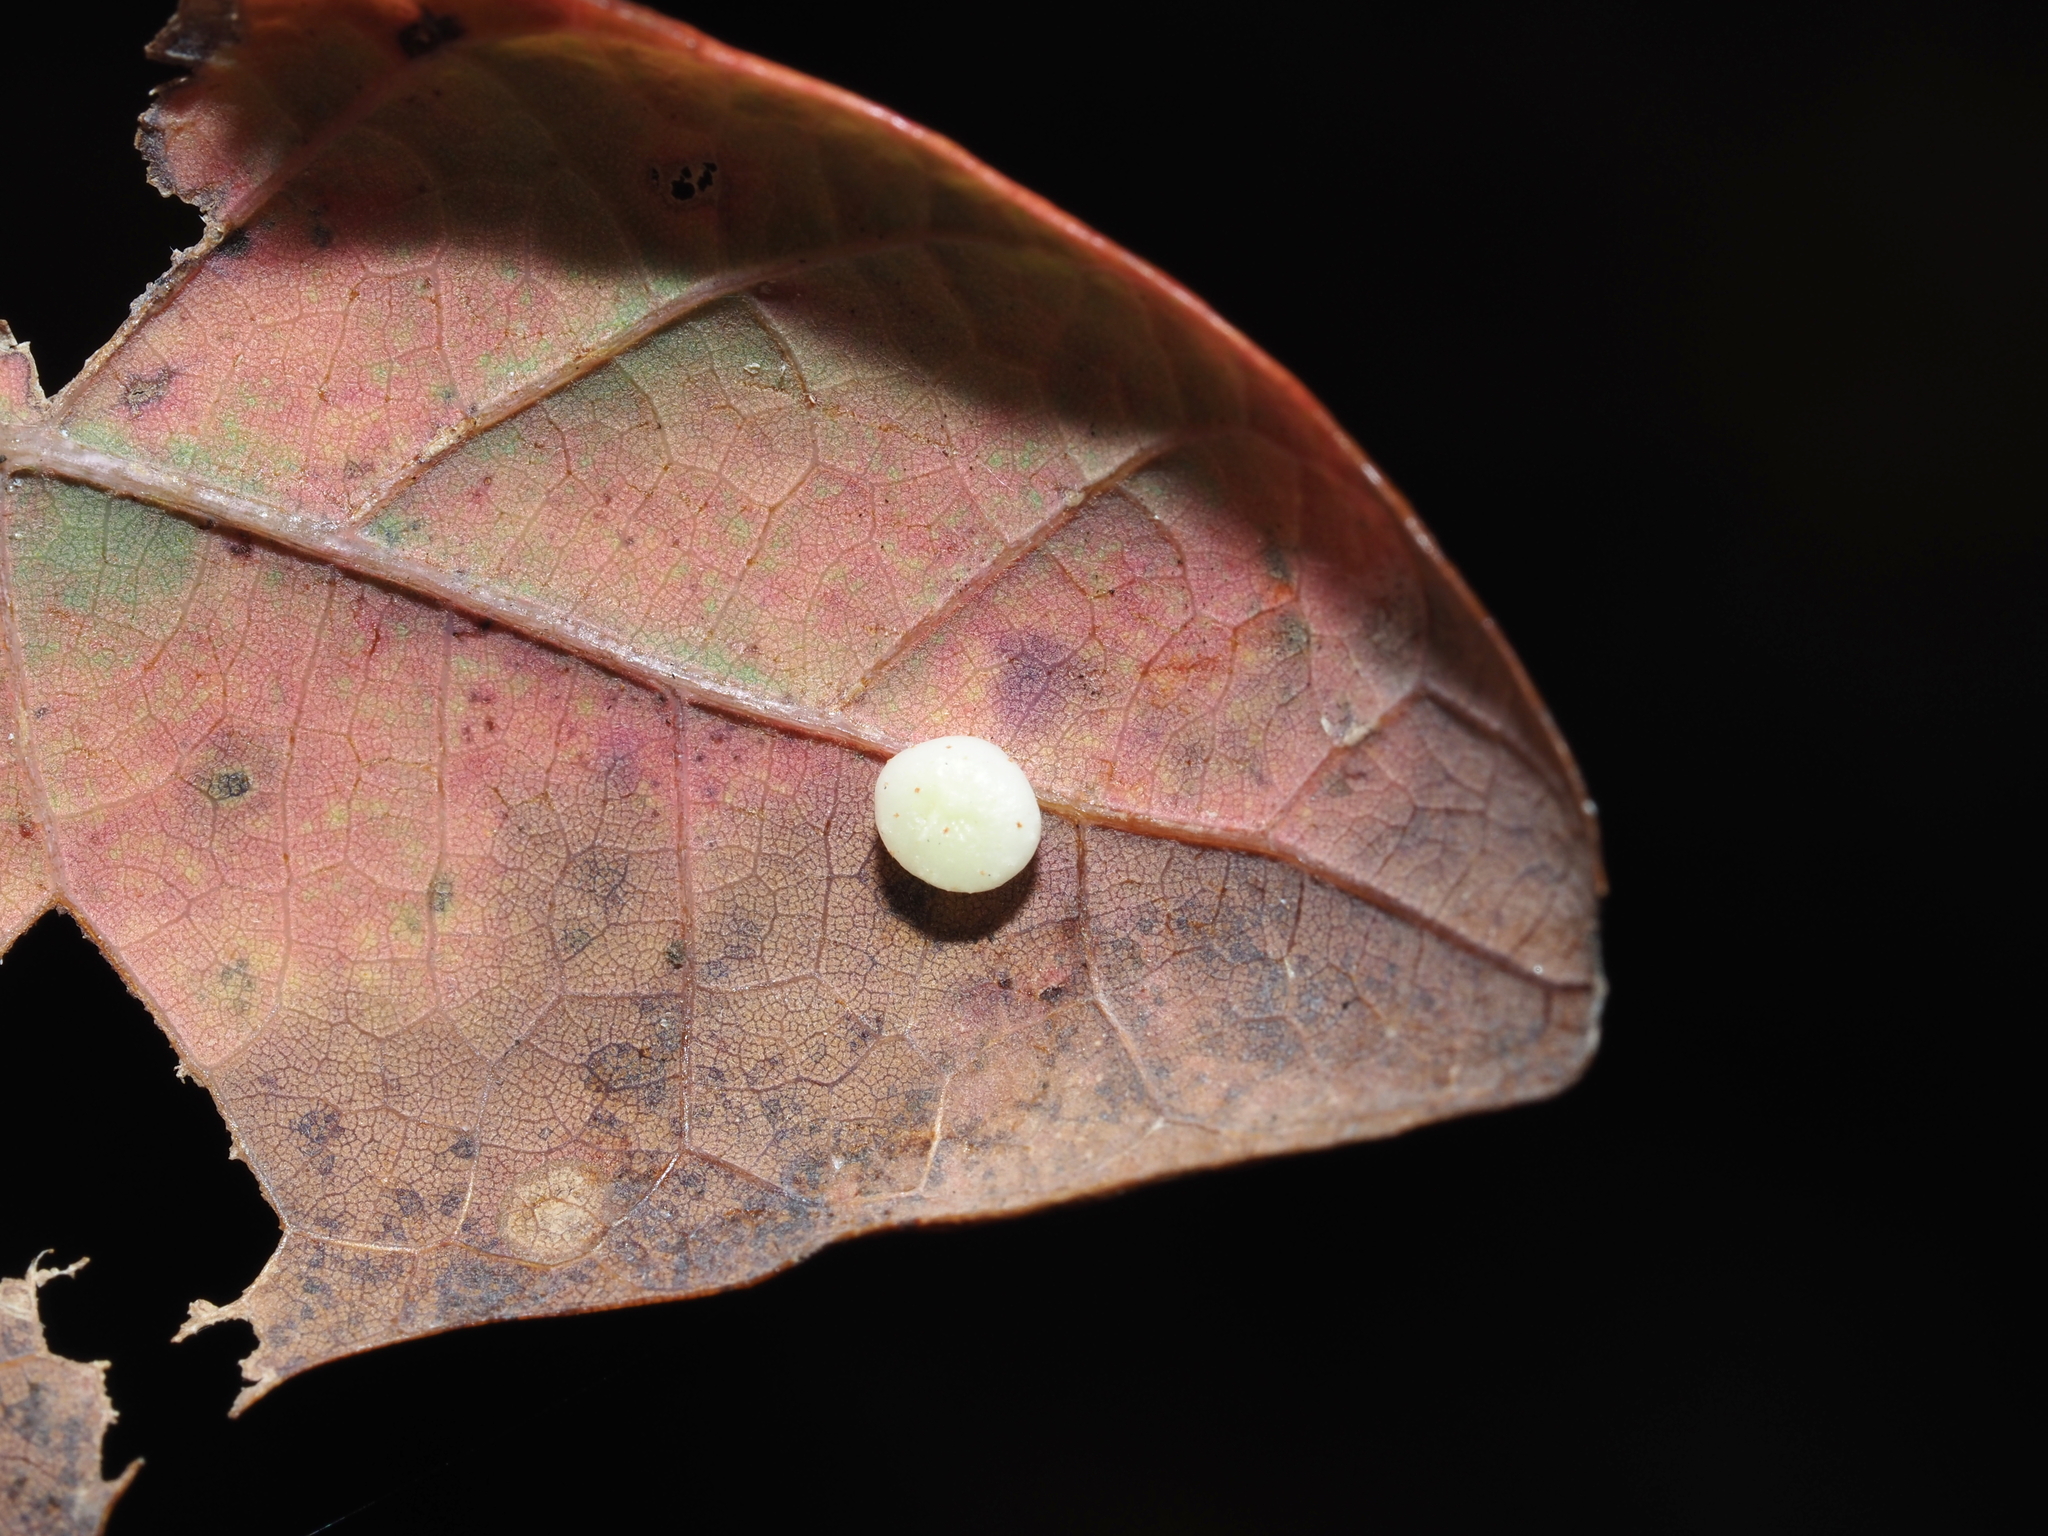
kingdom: Animalia
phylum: Arthropoda
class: Insecta
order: Hymenoptera
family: Cynipidae
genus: Phylloteras
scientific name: Phylloteras
